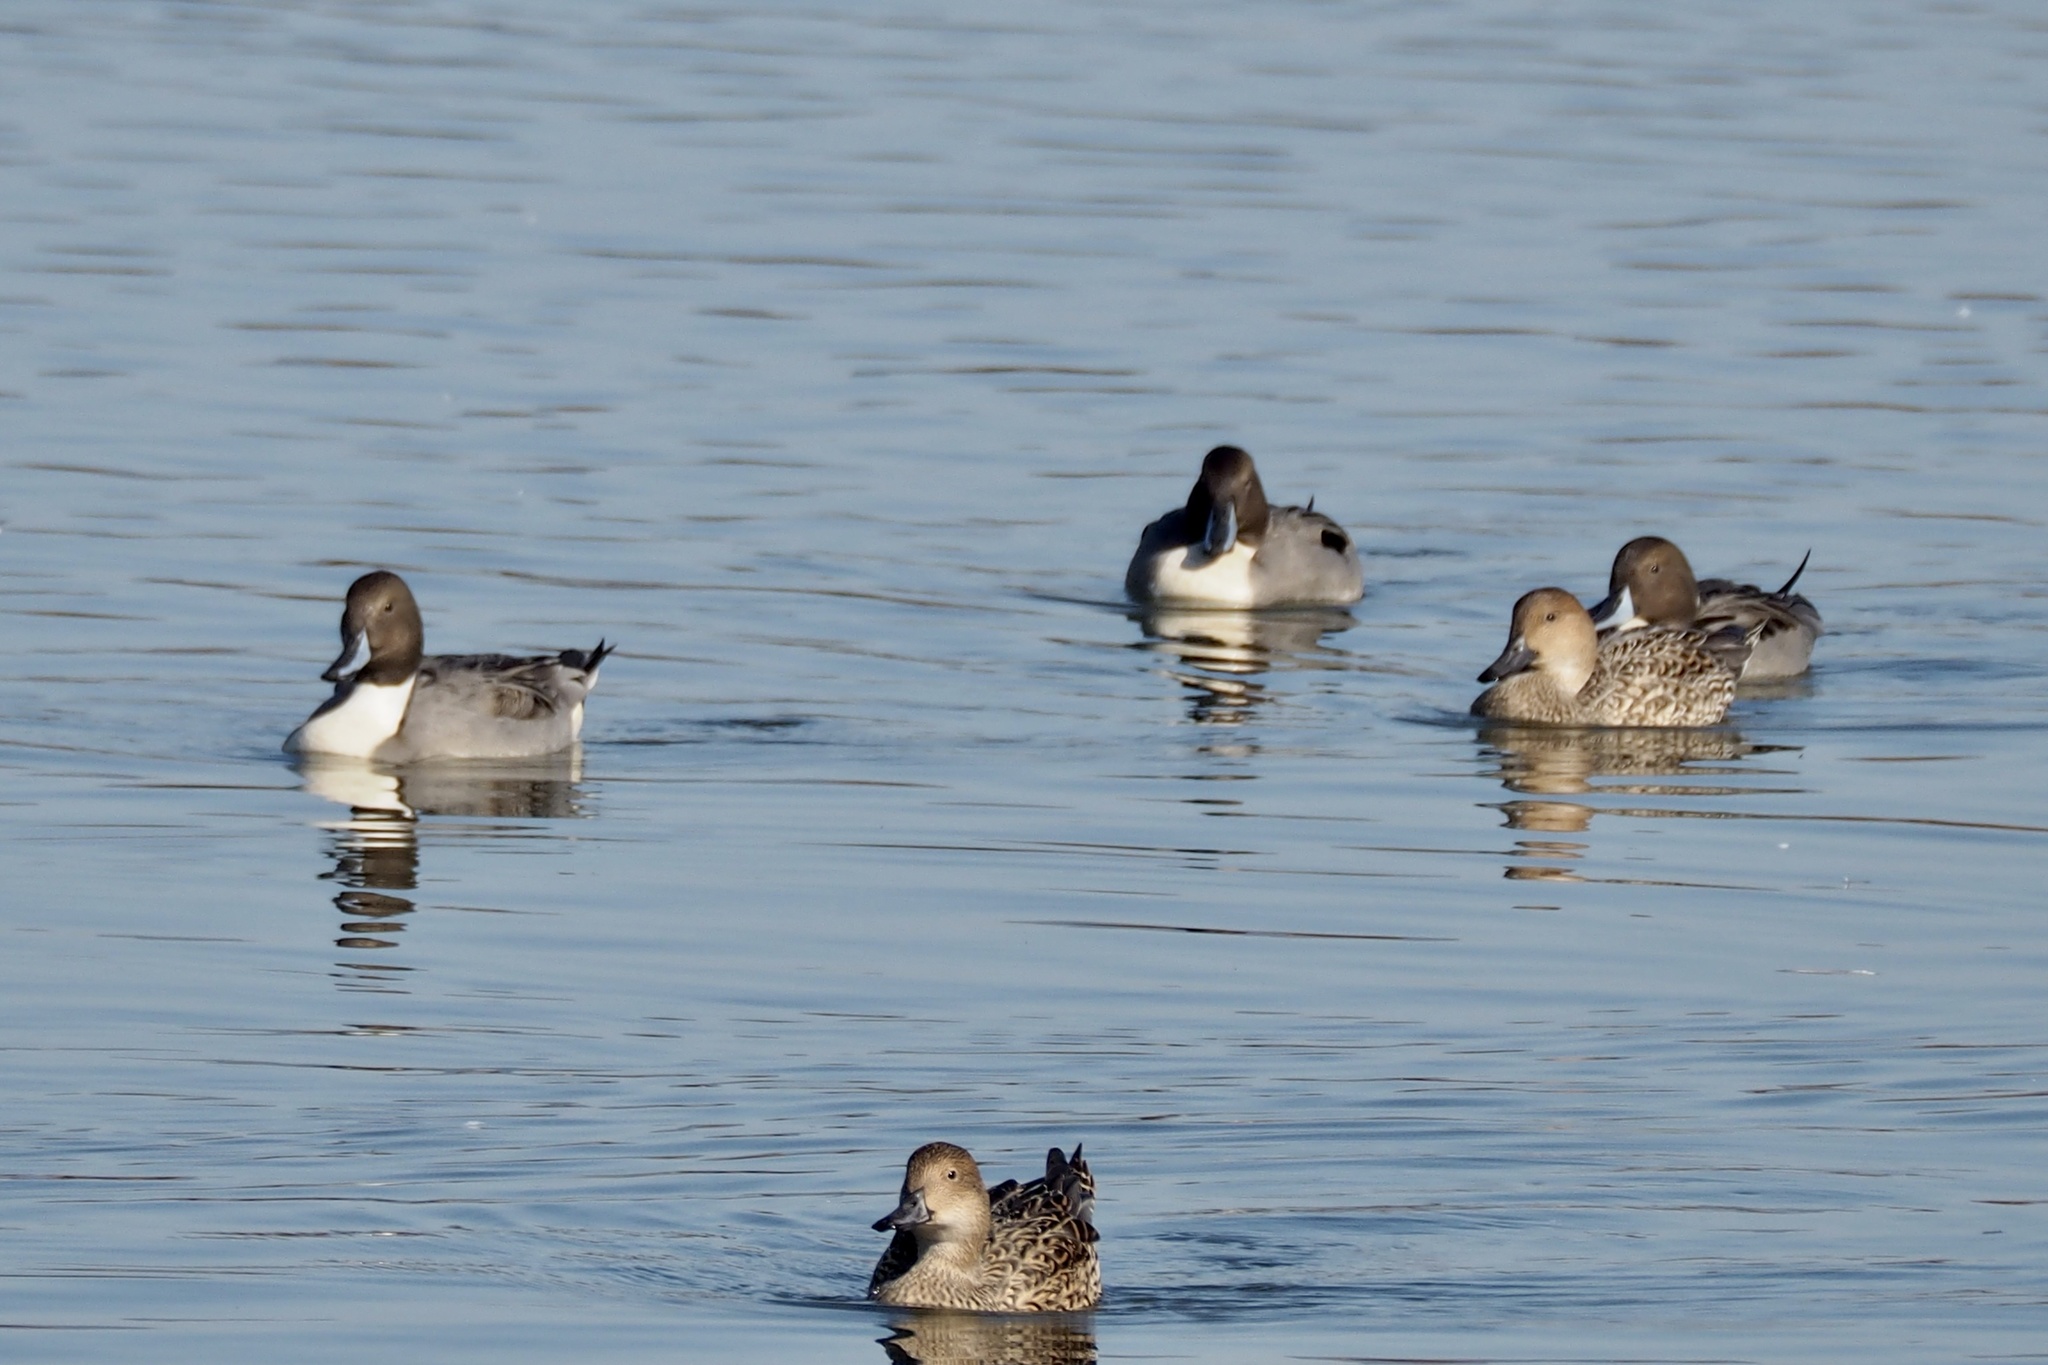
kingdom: Animalia
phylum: Chordata
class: Aves
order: Anseriformes
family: Anatidae
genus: Anas
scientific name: Anas acuta
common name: Northern pintail
